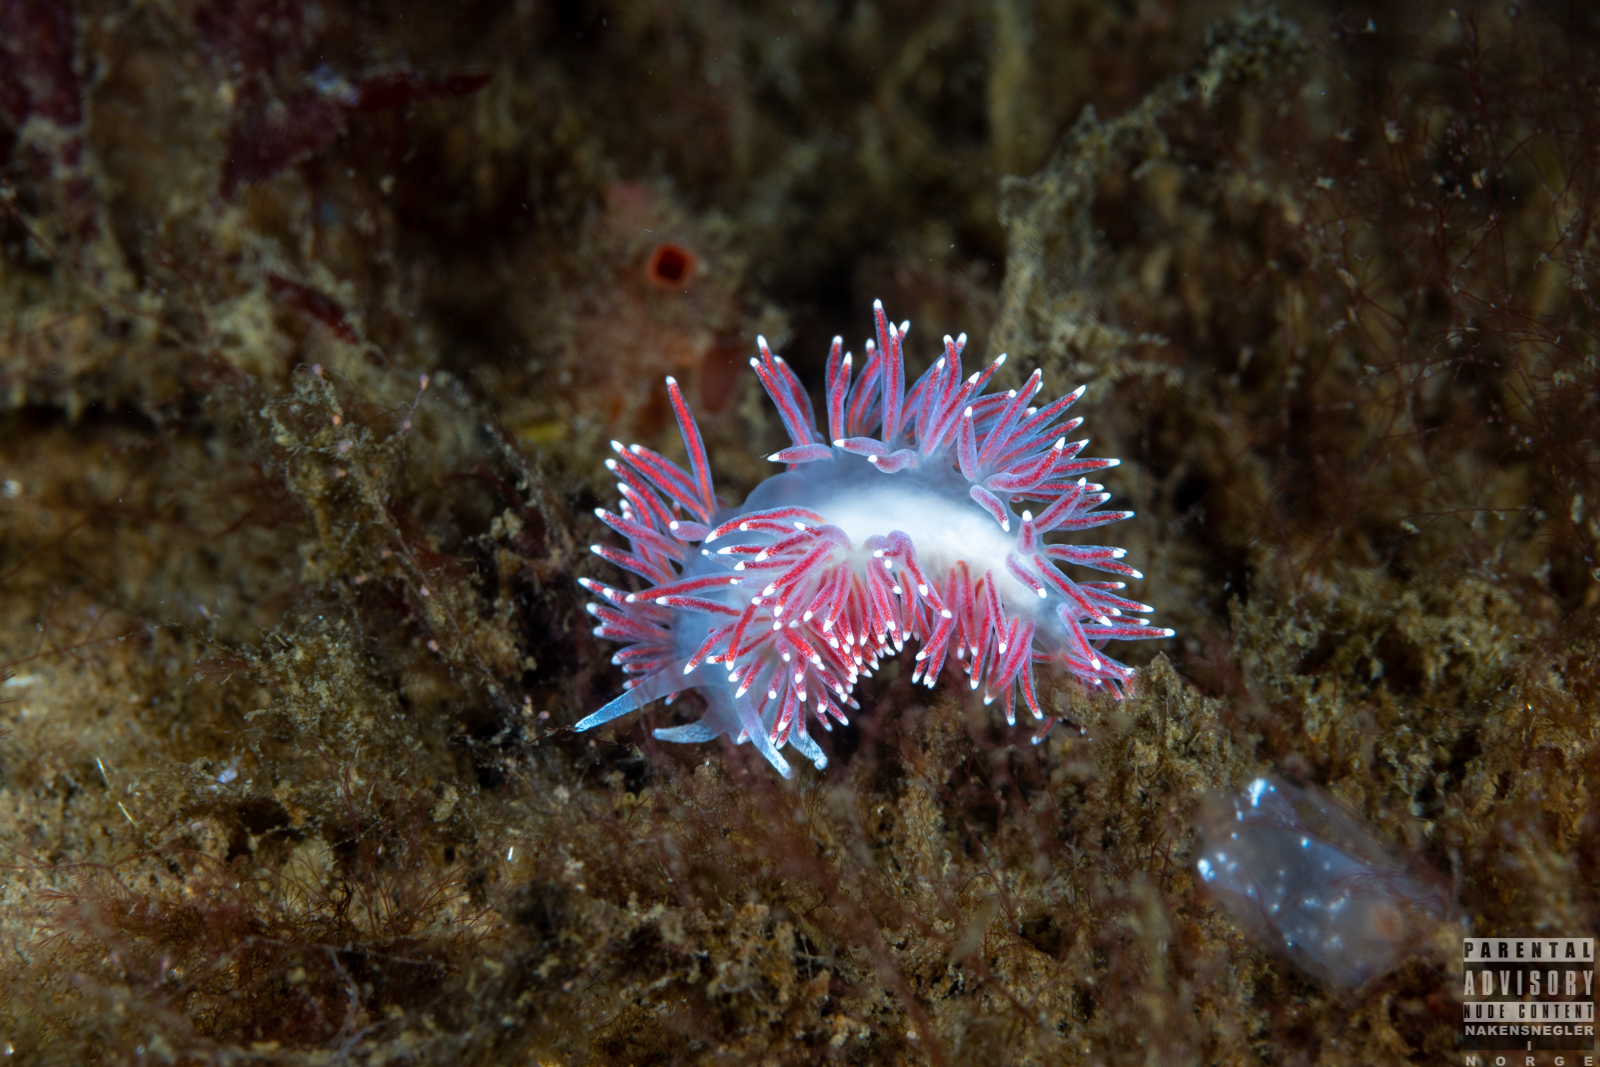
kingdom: Animalia
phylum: Mollusca
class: Gastropoda
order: Nudibranchia
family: Flabellinidae
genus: Carronella
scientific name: Carronella pellucida
